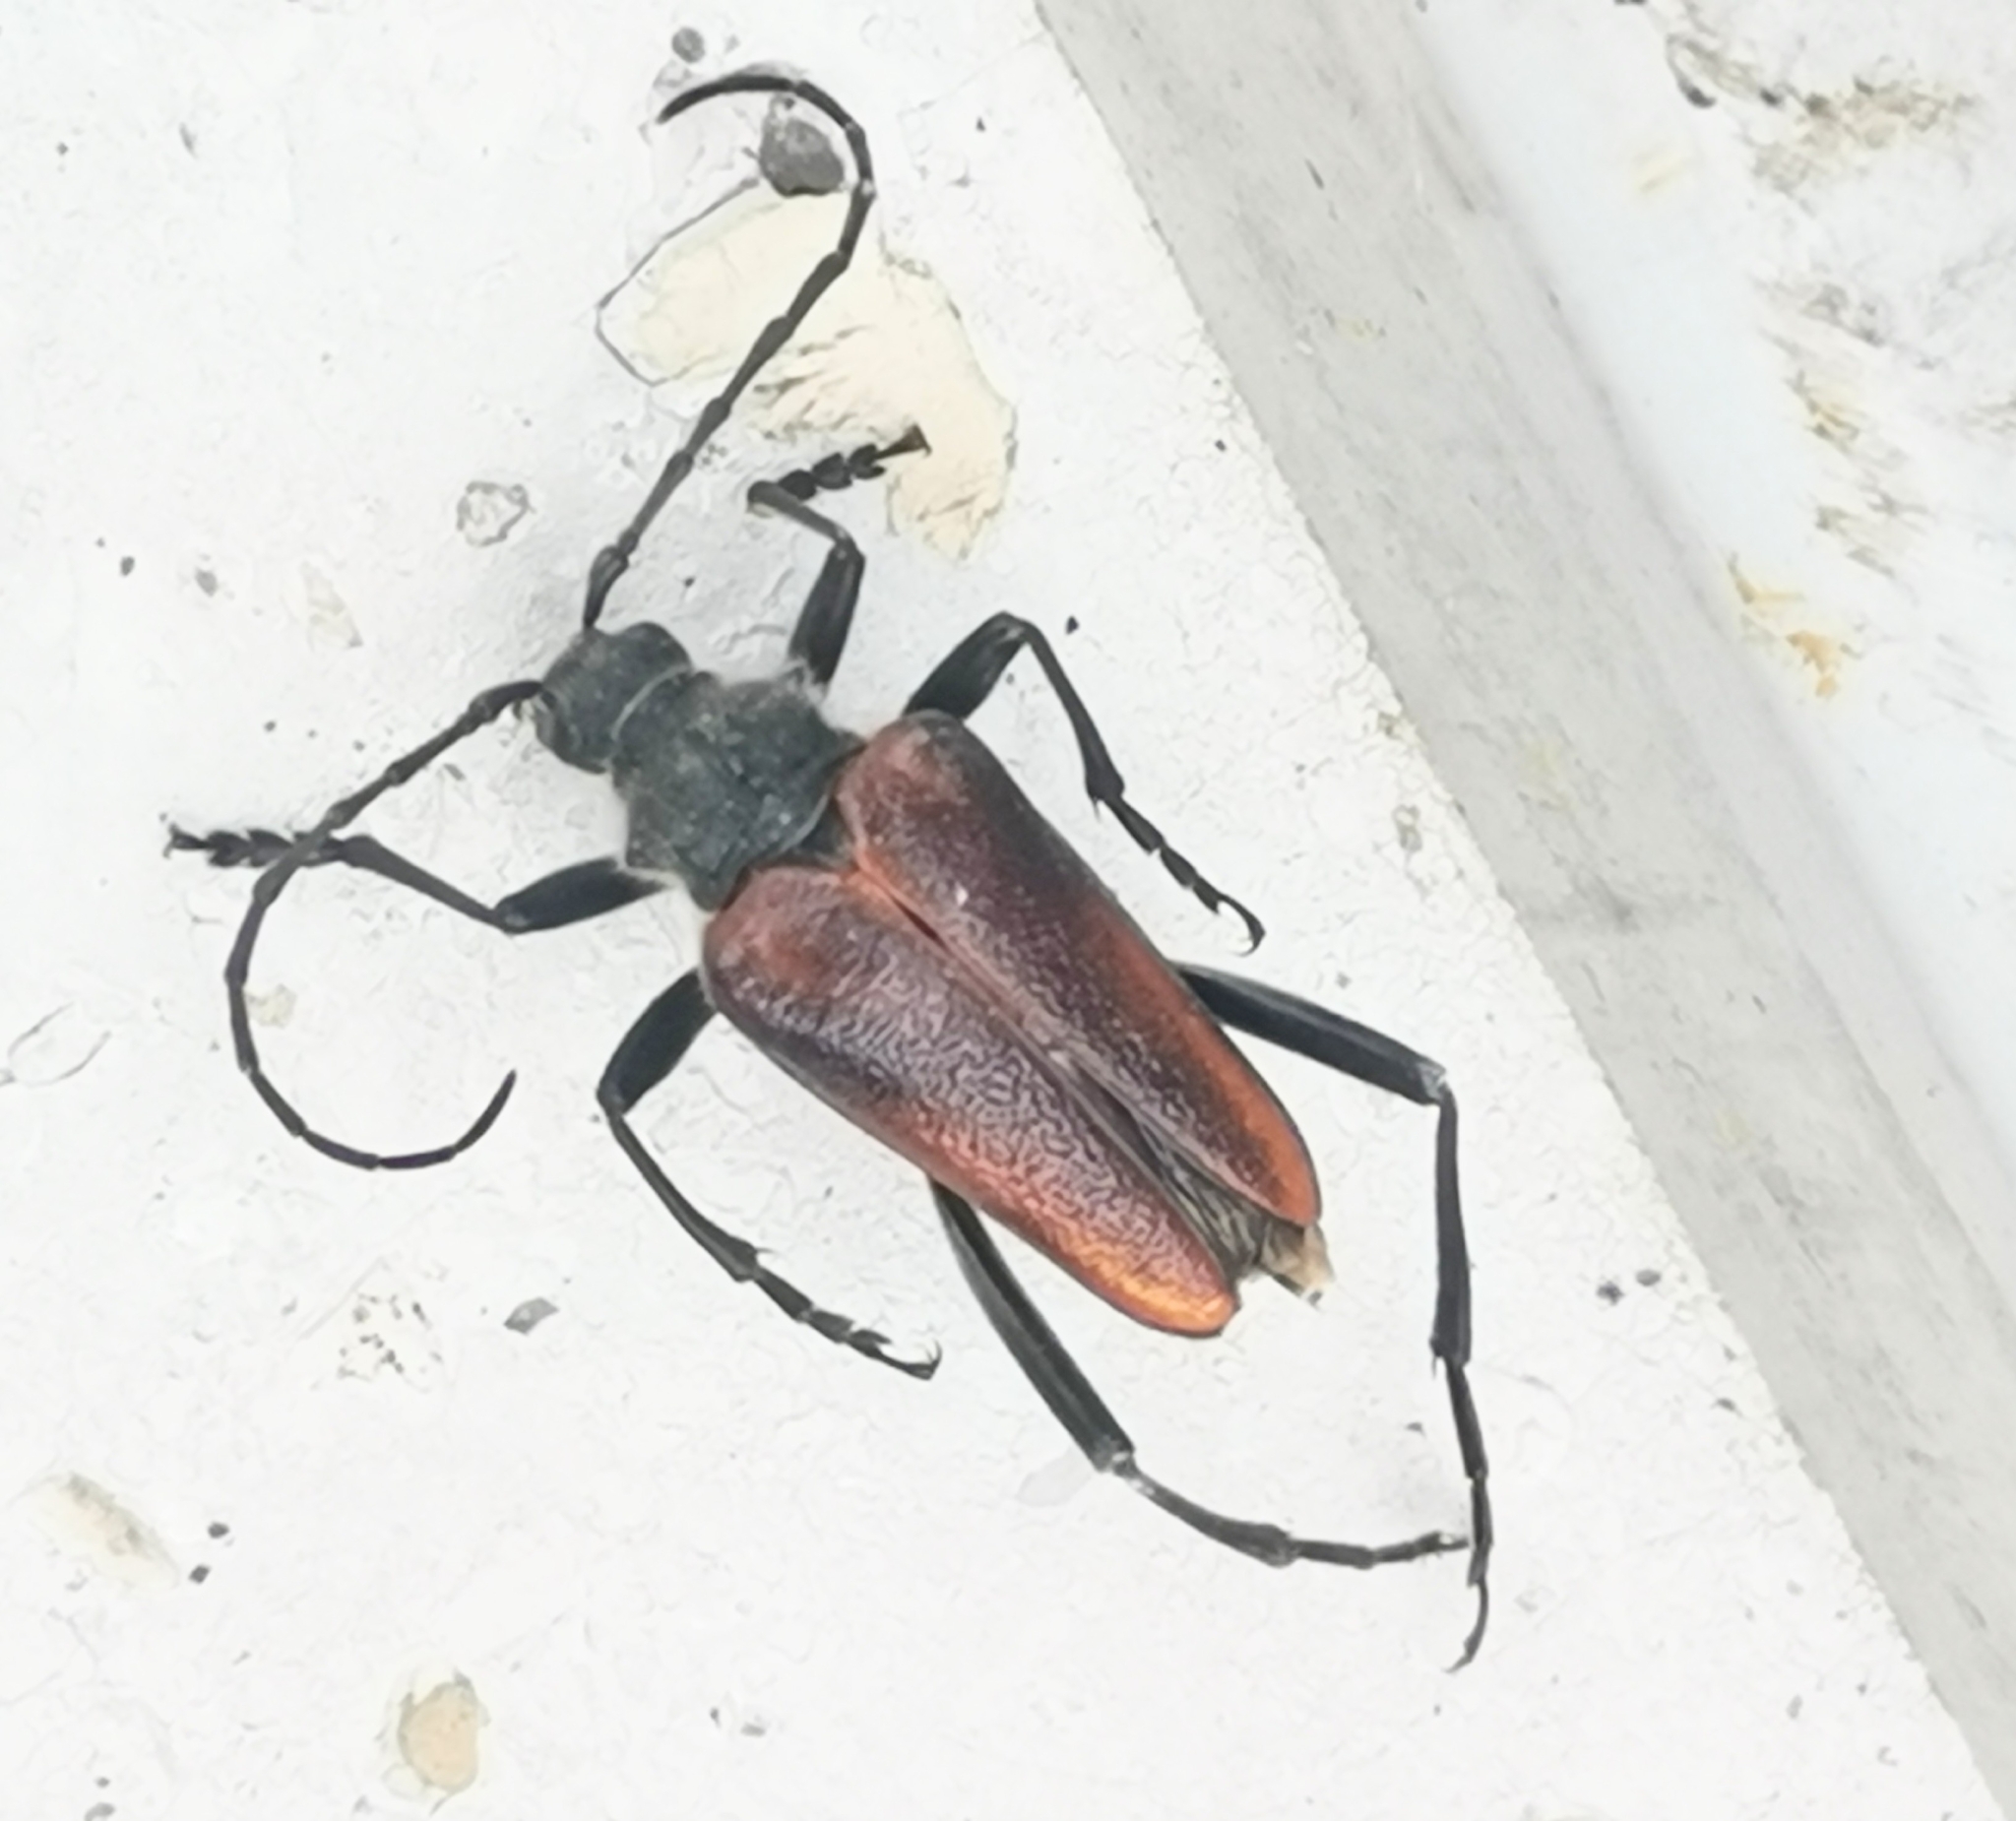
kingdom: Animalia
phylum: Arthropoda
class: Insecta
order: Coleoptera
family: Cerambycidae
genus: Pachyta
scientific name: Pachyta lamed
